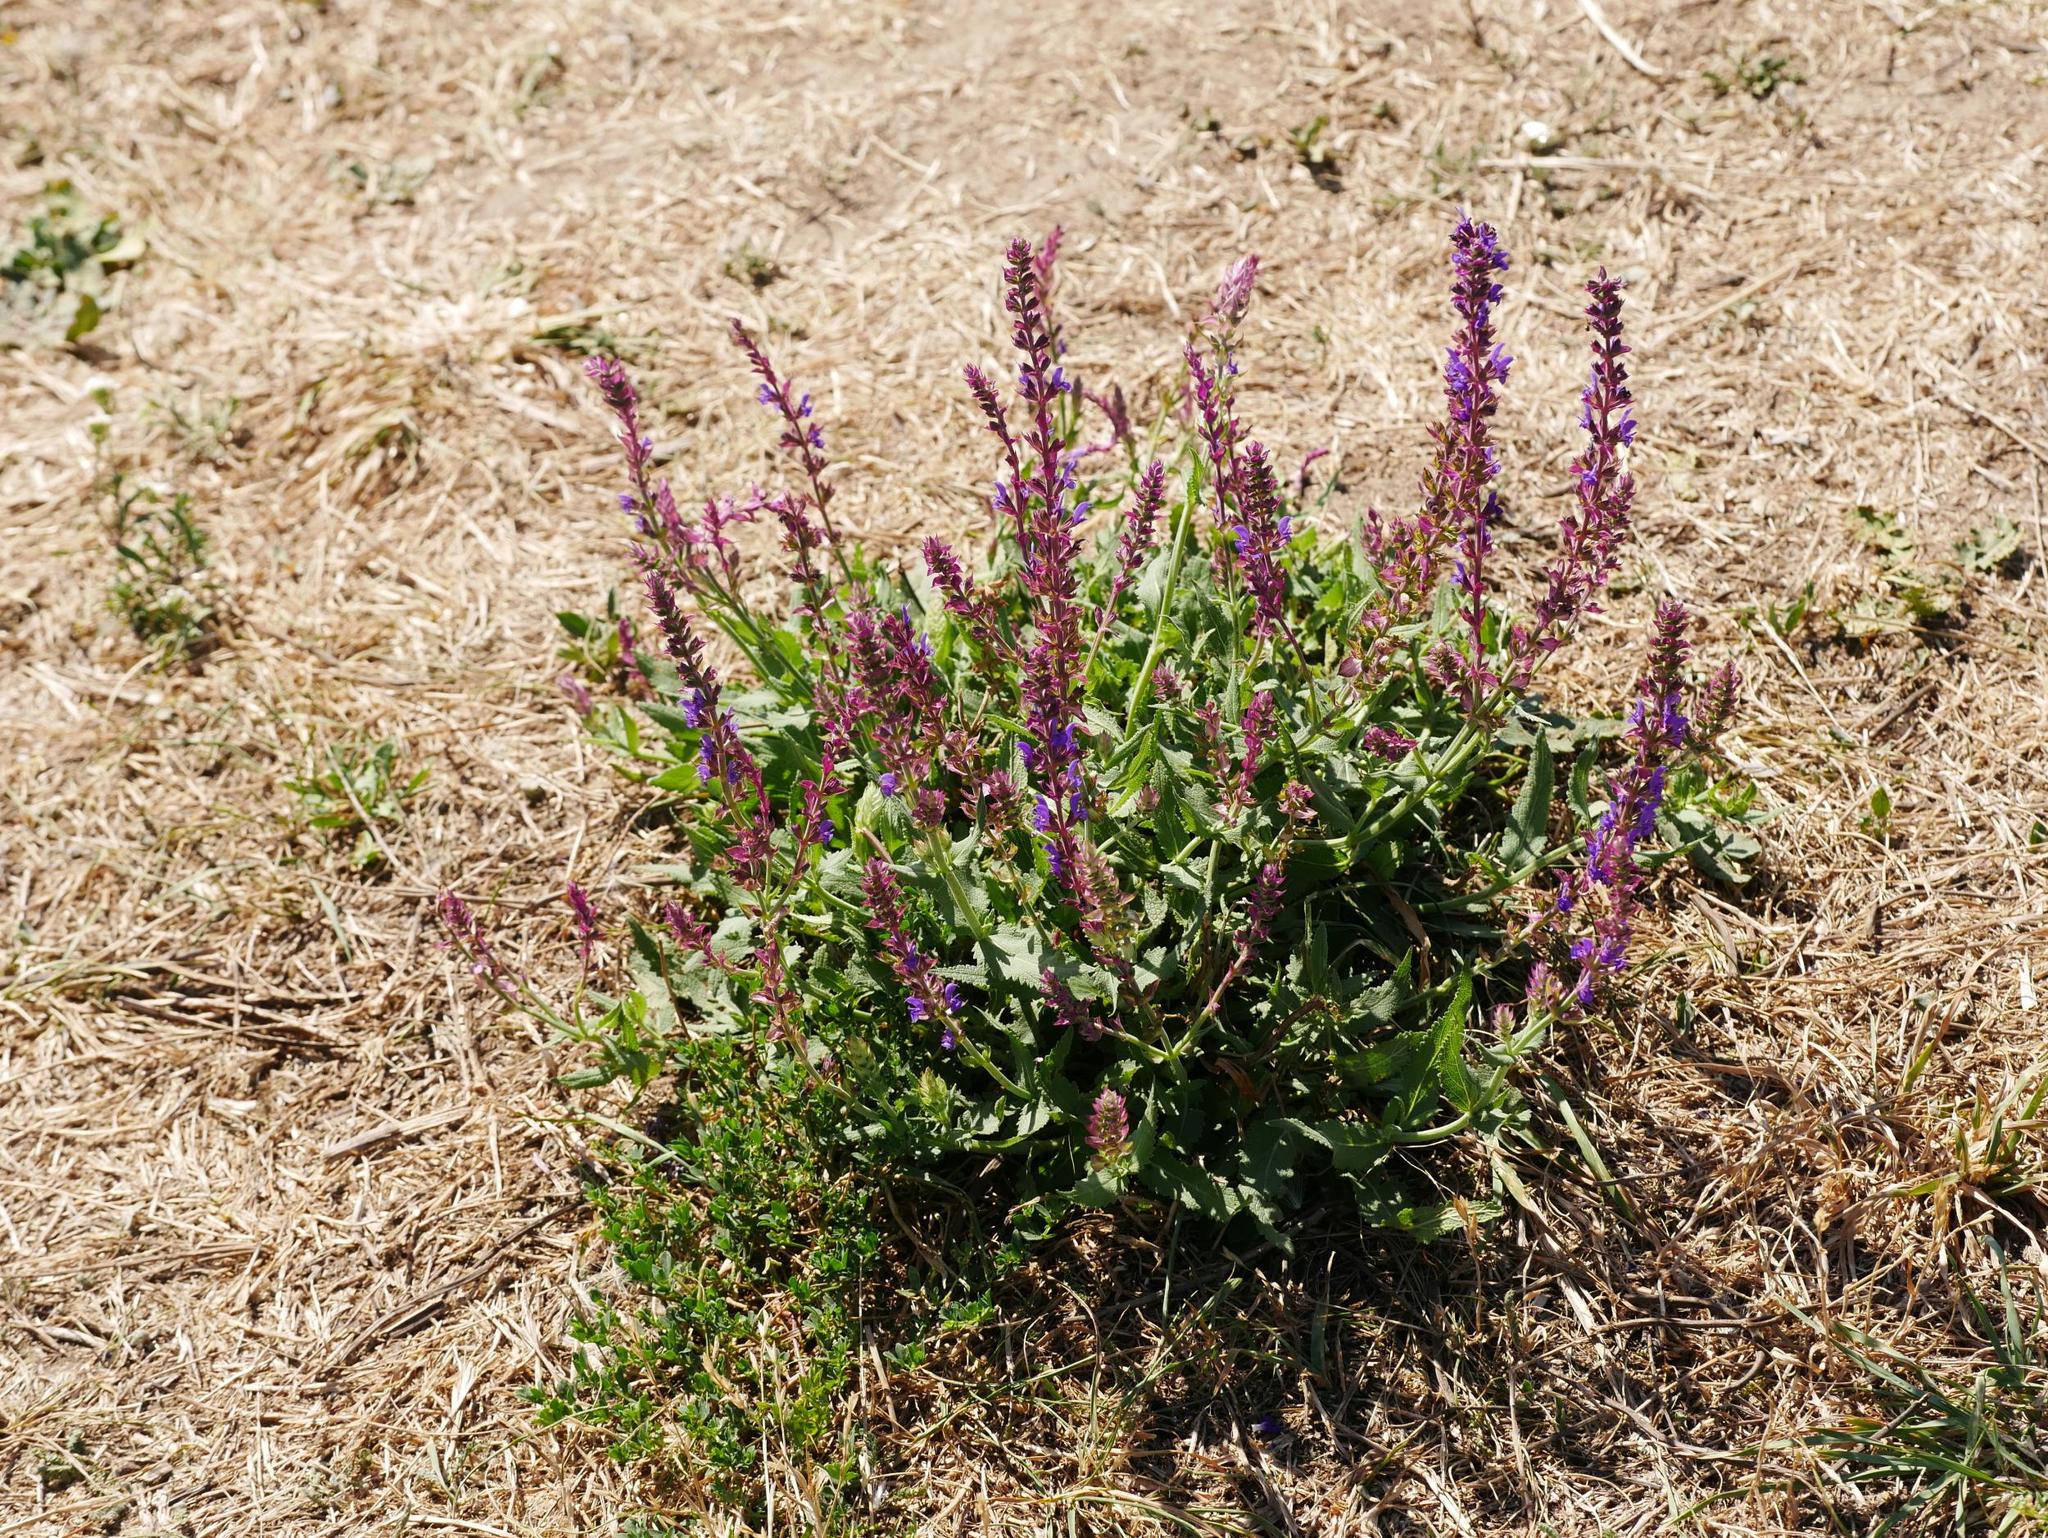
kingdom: Plantae
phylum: Tracheophyta
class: Magnoliopsida
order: Lamiales
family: Lamiaceae
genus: Salvia
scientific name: Salvia nemorosa
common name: Balkan clary
